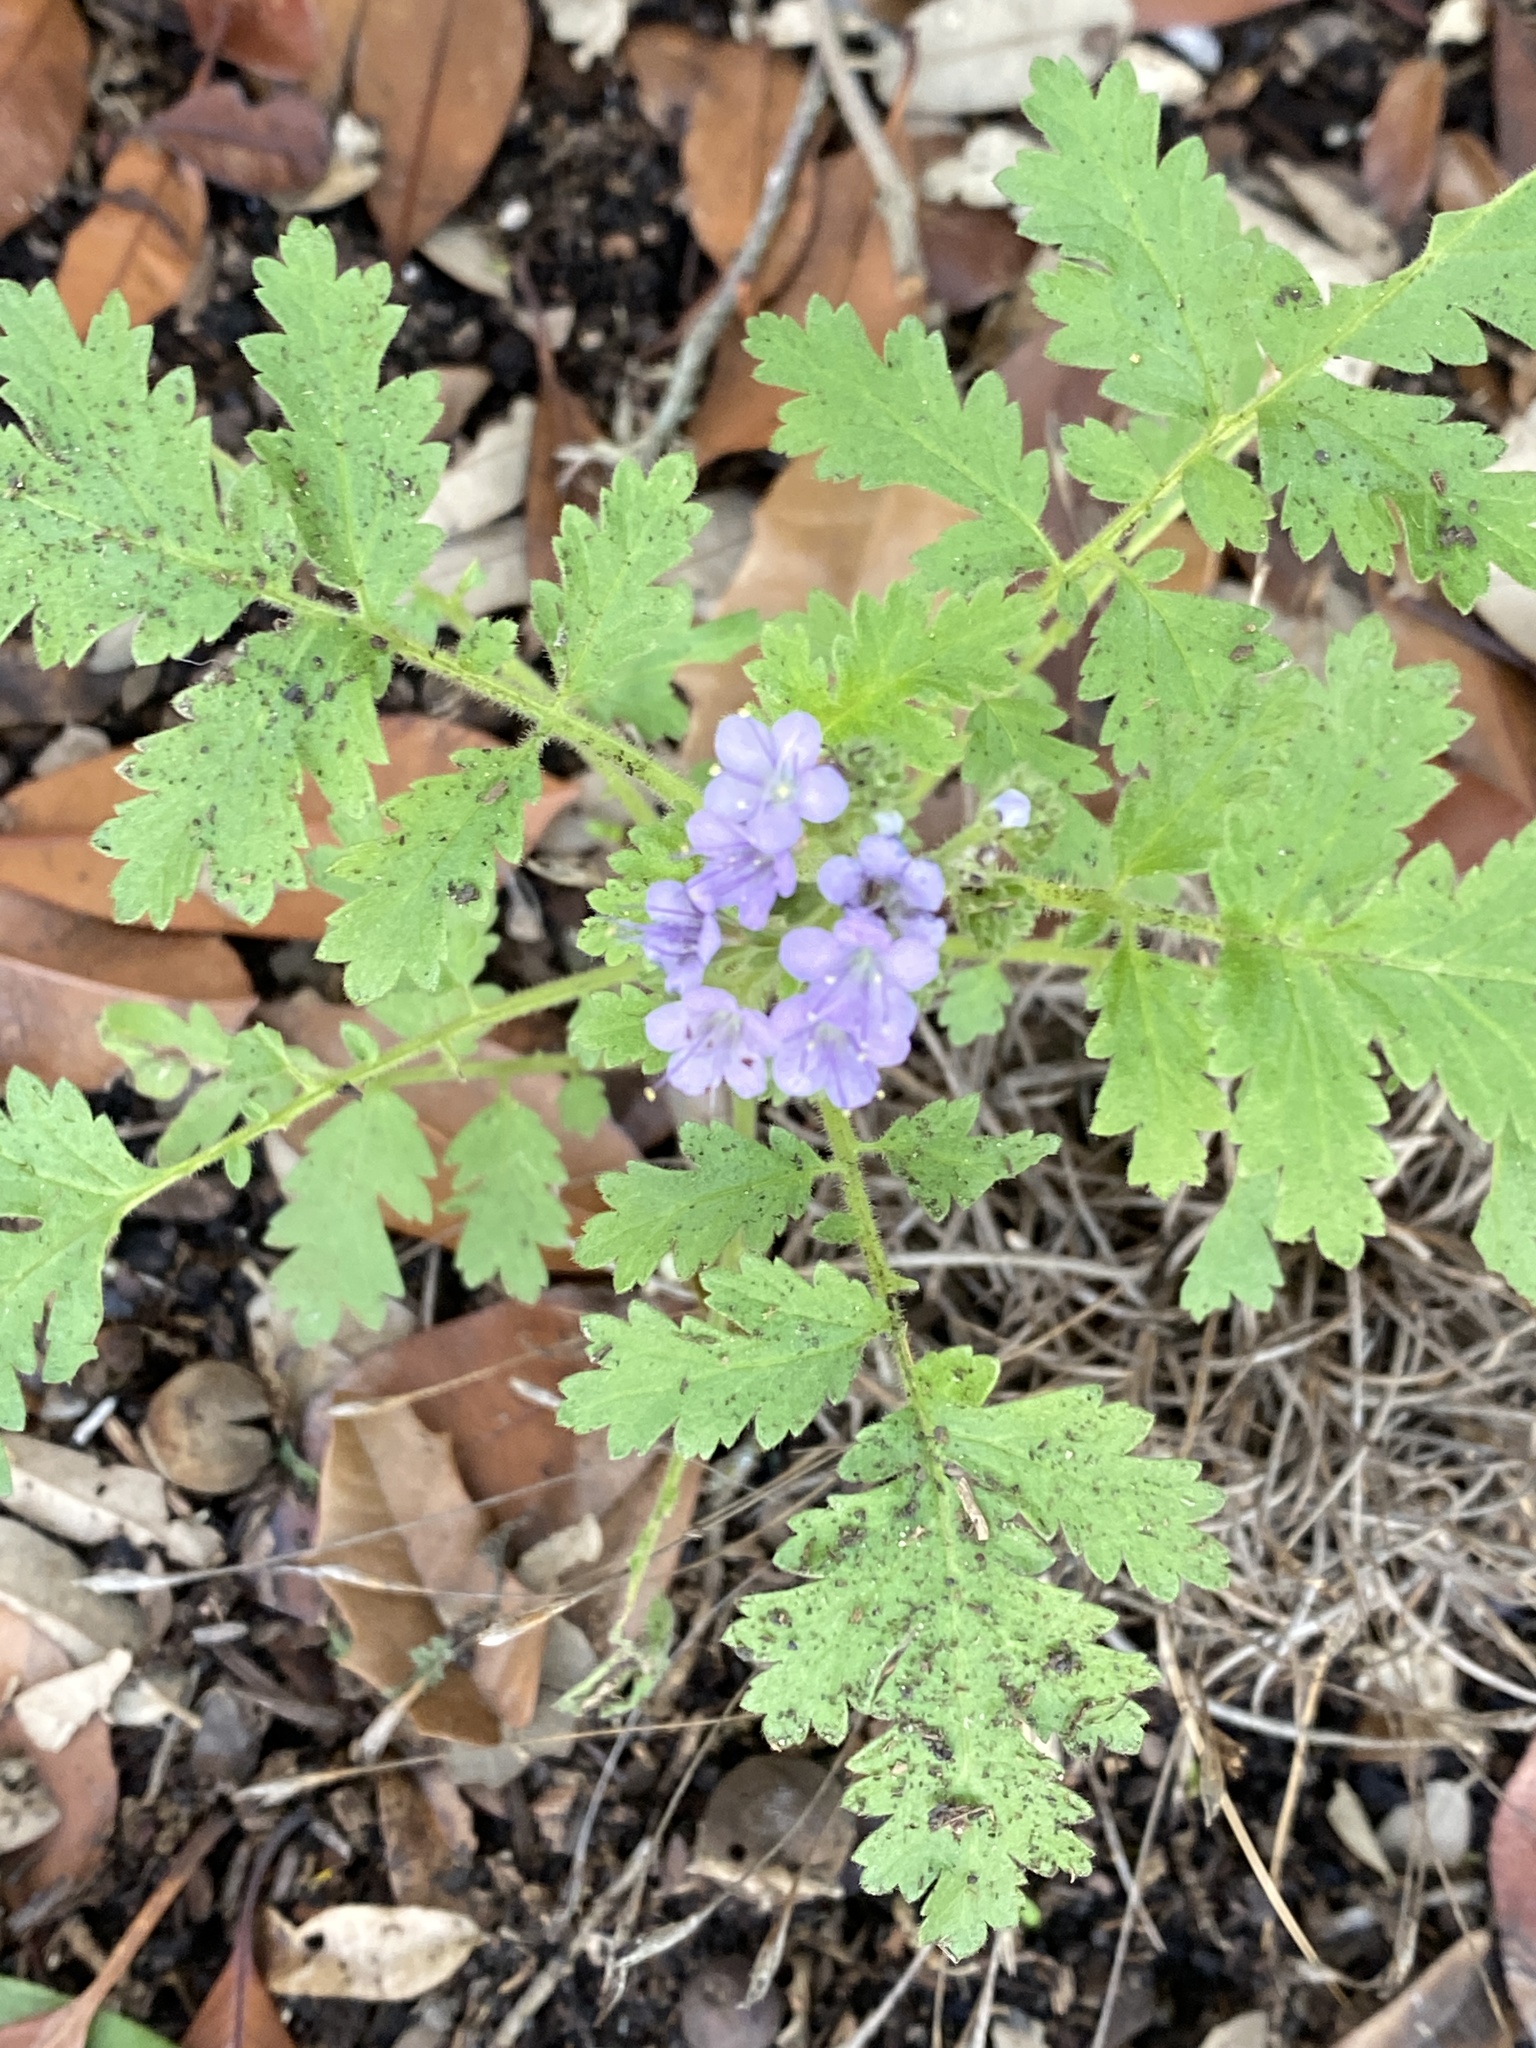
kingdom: Plantae
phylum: Tracheophyta
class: Magnoliopsida
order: Boraginales
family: Hydrophyllaceae
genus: Phacelia
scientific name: Phacelia congesta
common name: Blue curls
